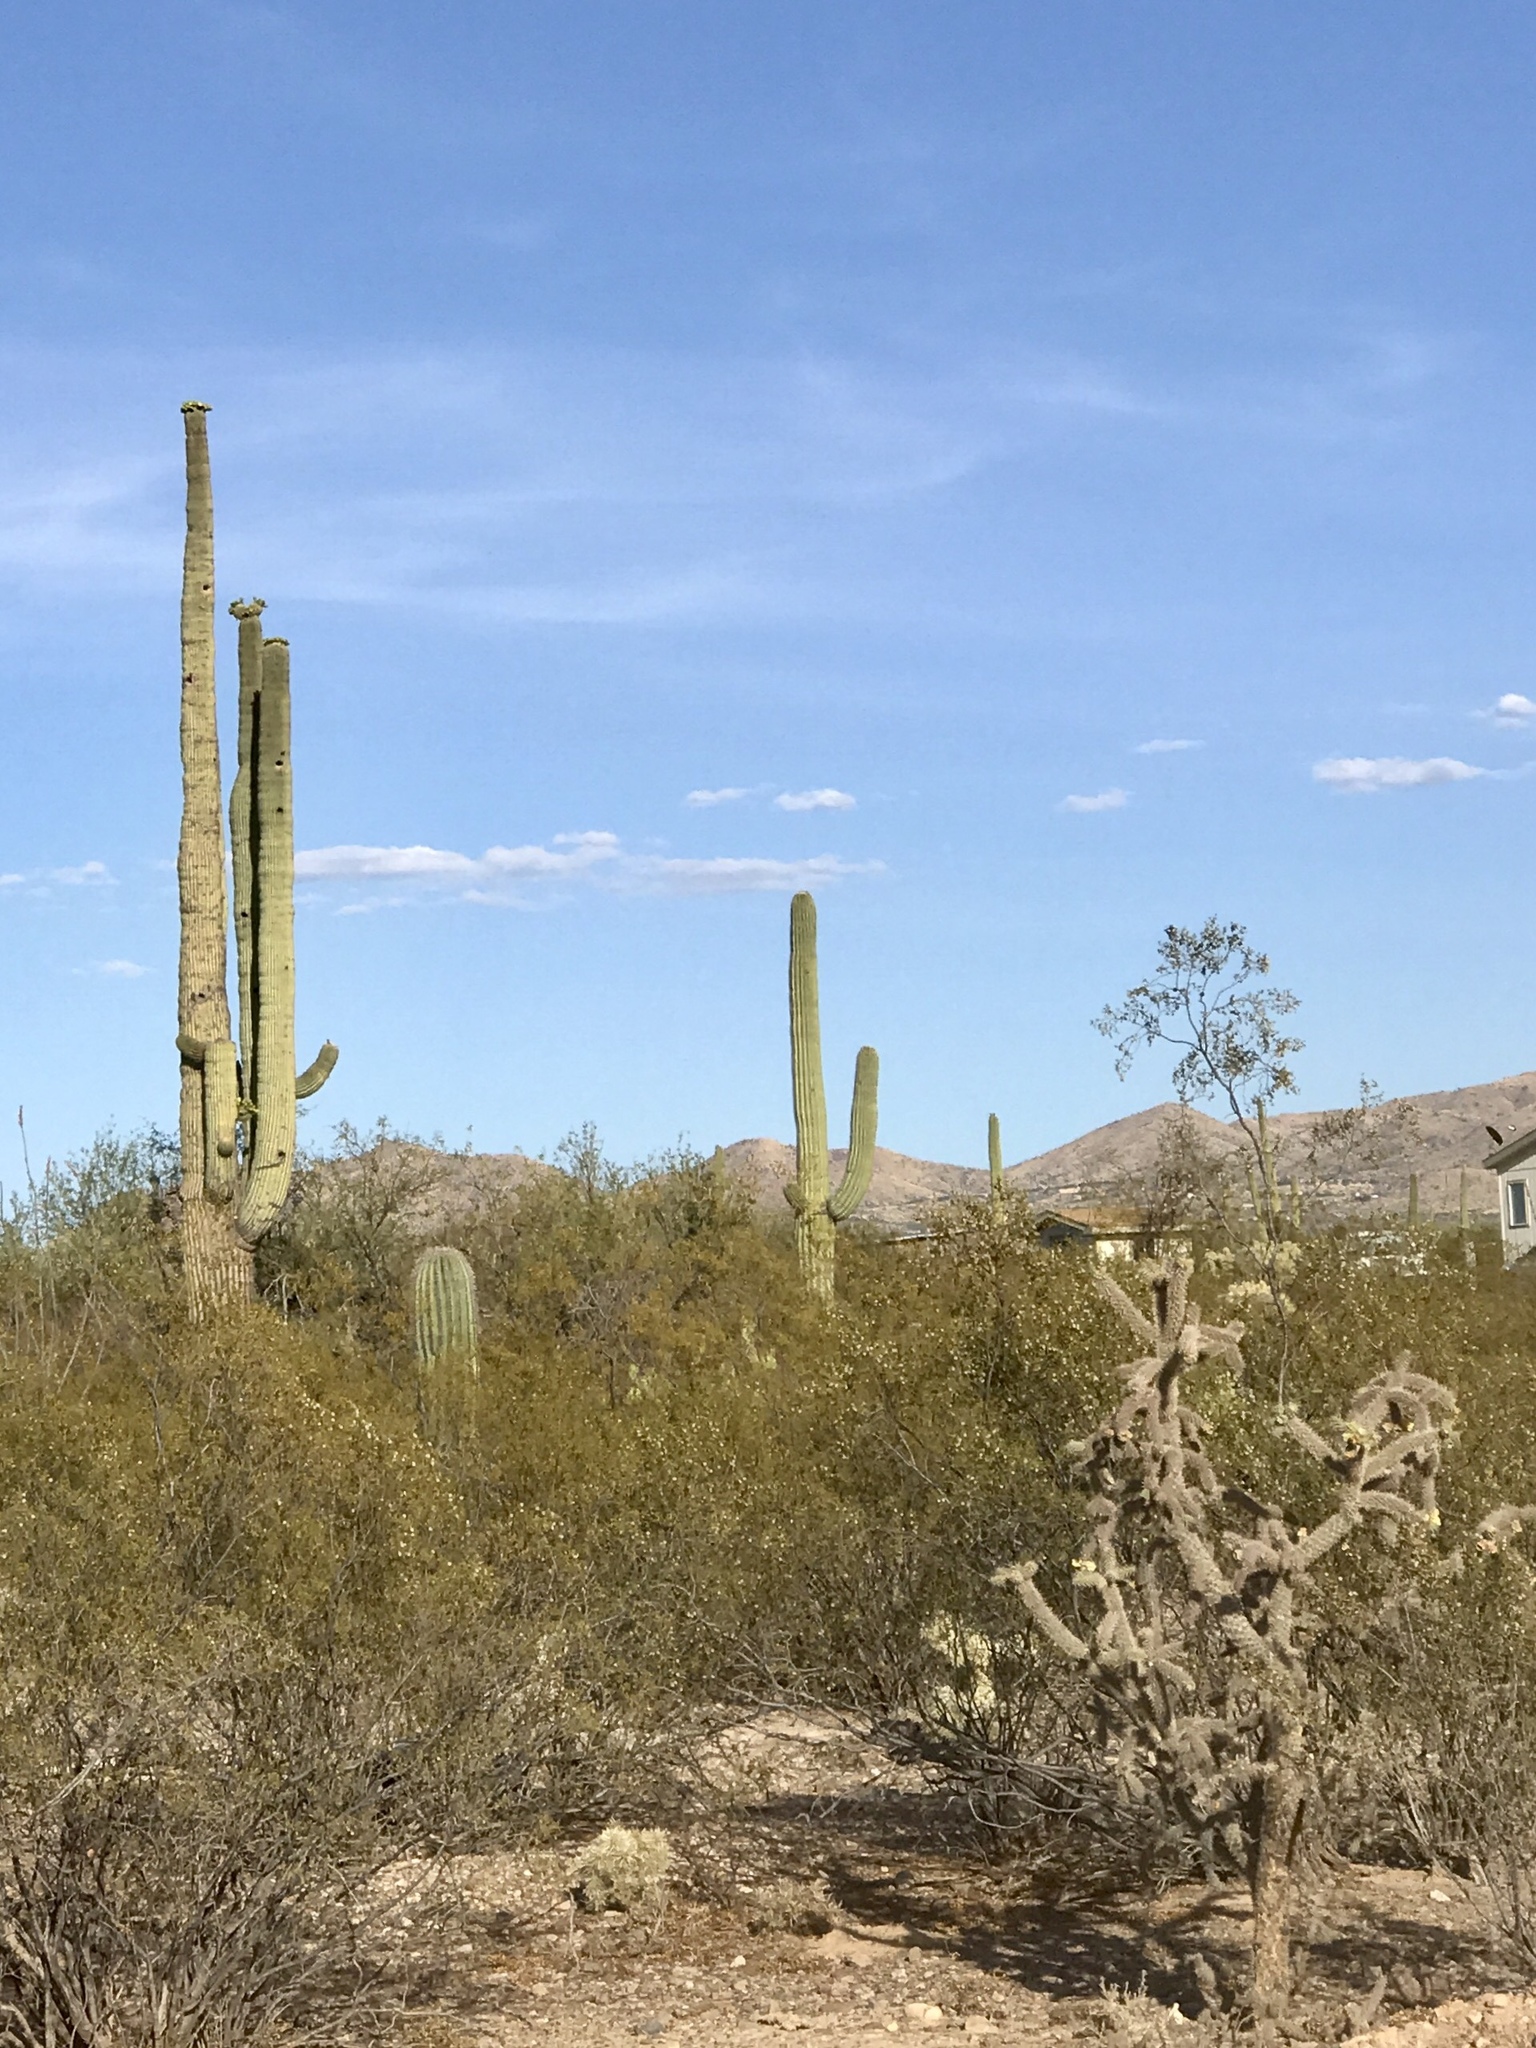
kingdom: Plantae
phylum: Tracheophyta
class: Magnoliopsida
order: Caryophyllales
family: Cactaceae
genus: Cylindropuntia
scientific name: Cylindropuntia imbricata
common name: Candelabrum cactus
